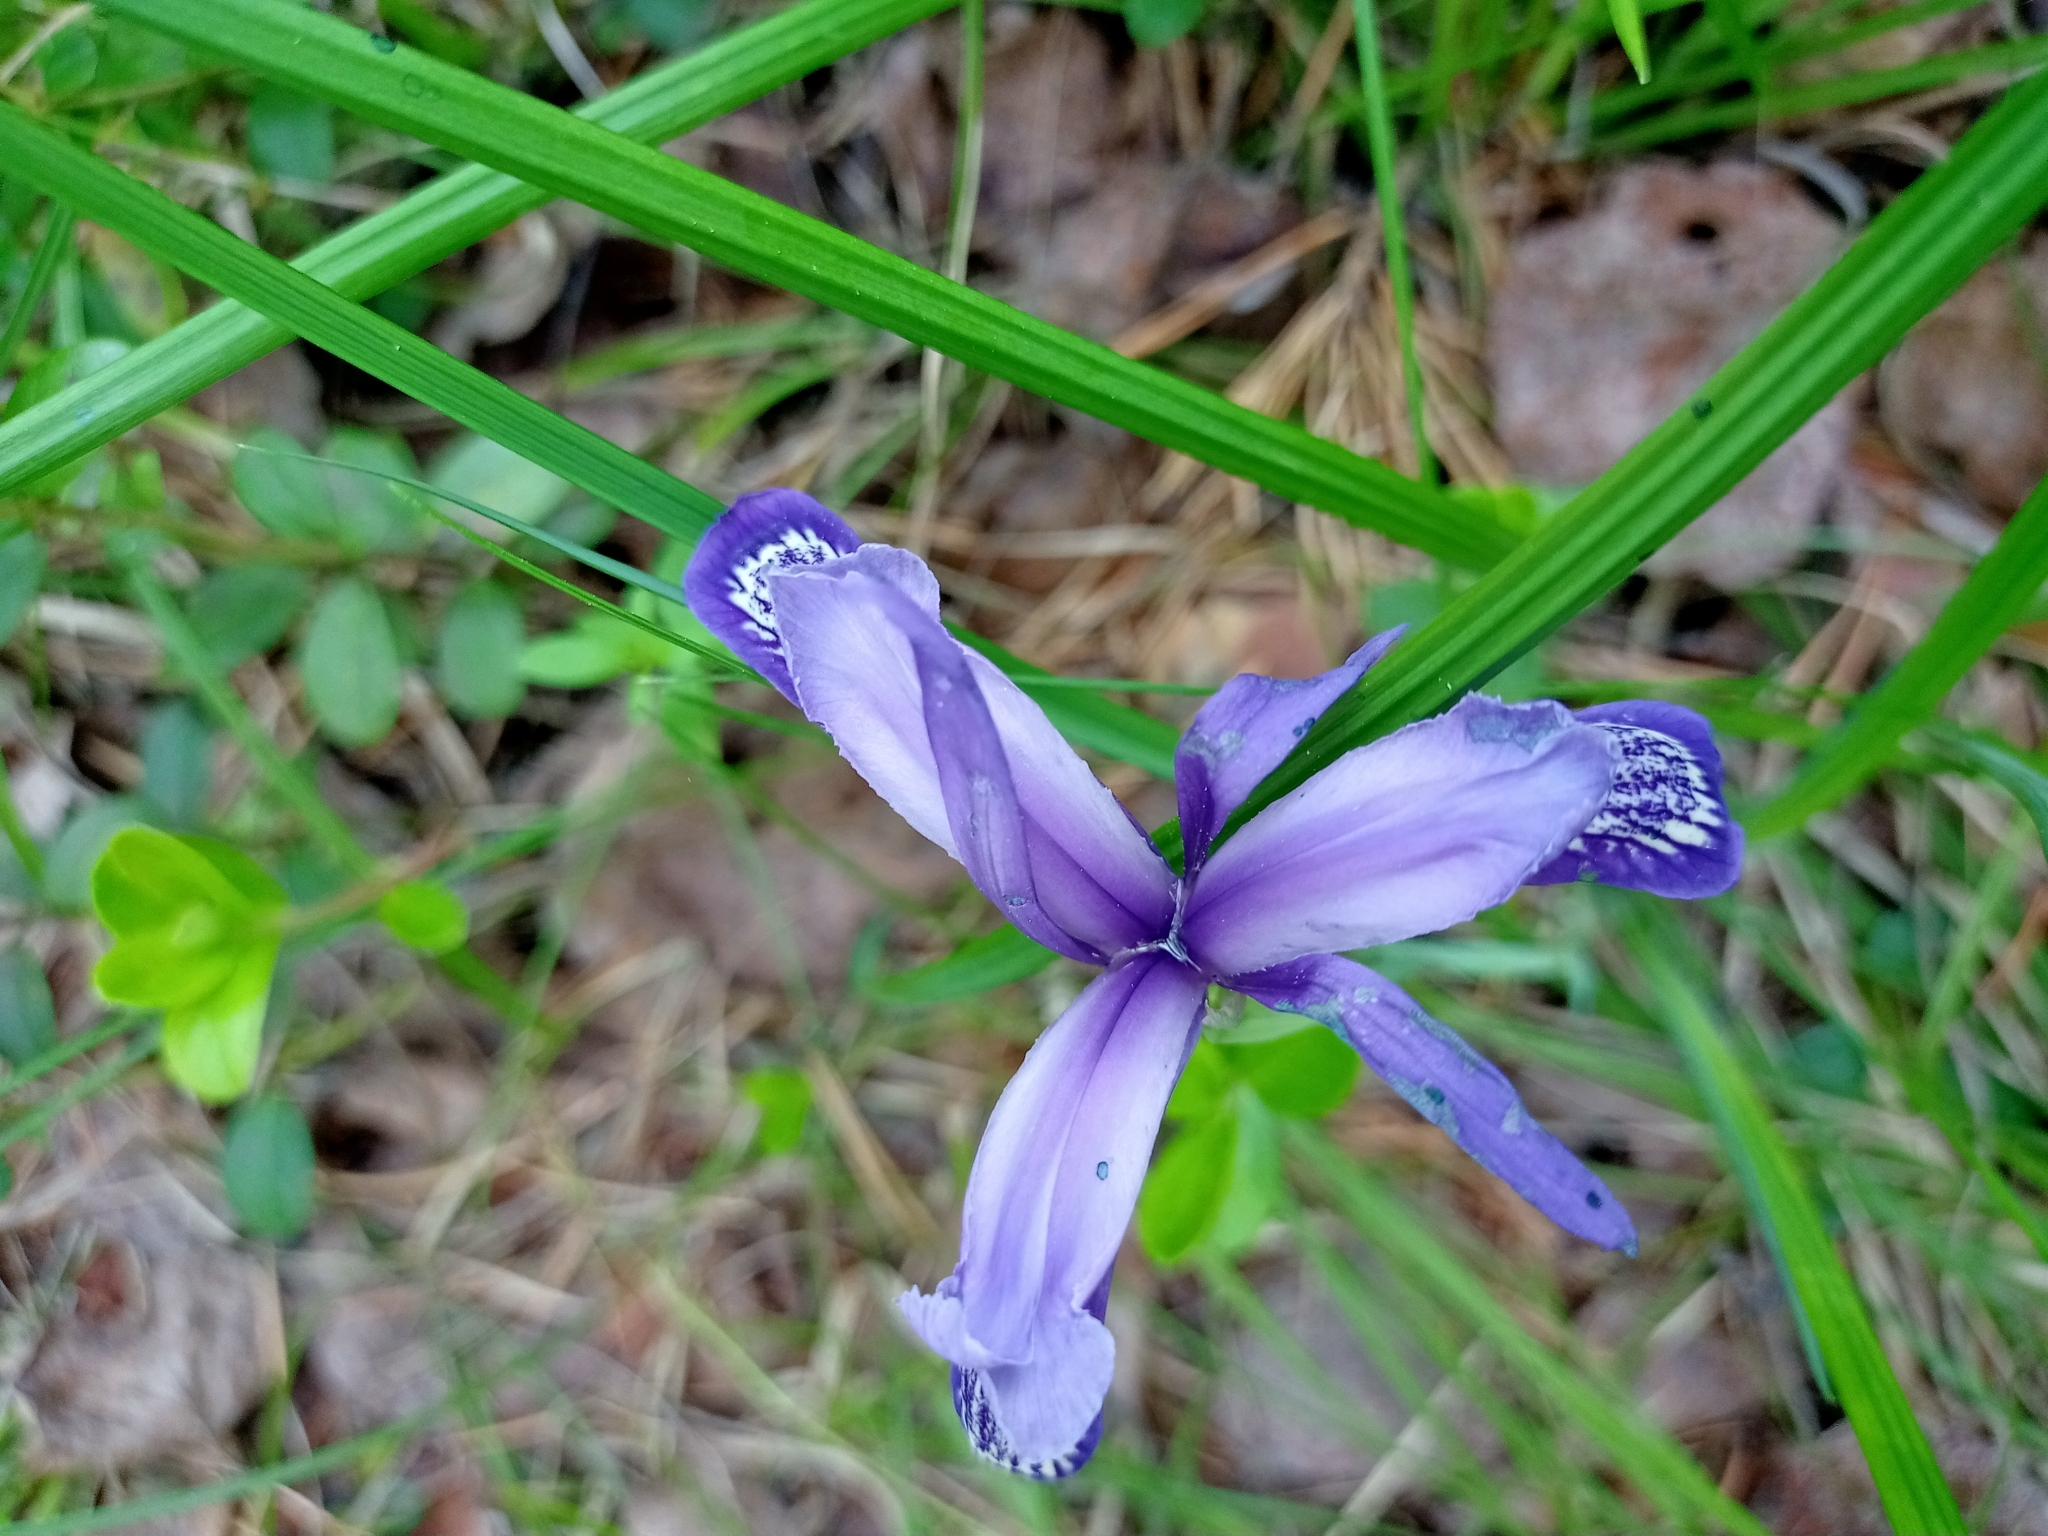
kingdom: Plantae
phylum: Tracheophyta
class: Liliopsida
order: Asparagales
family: Iridaceae
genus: Iris
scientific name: Iris ruthenica
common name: Purple-bract iris
